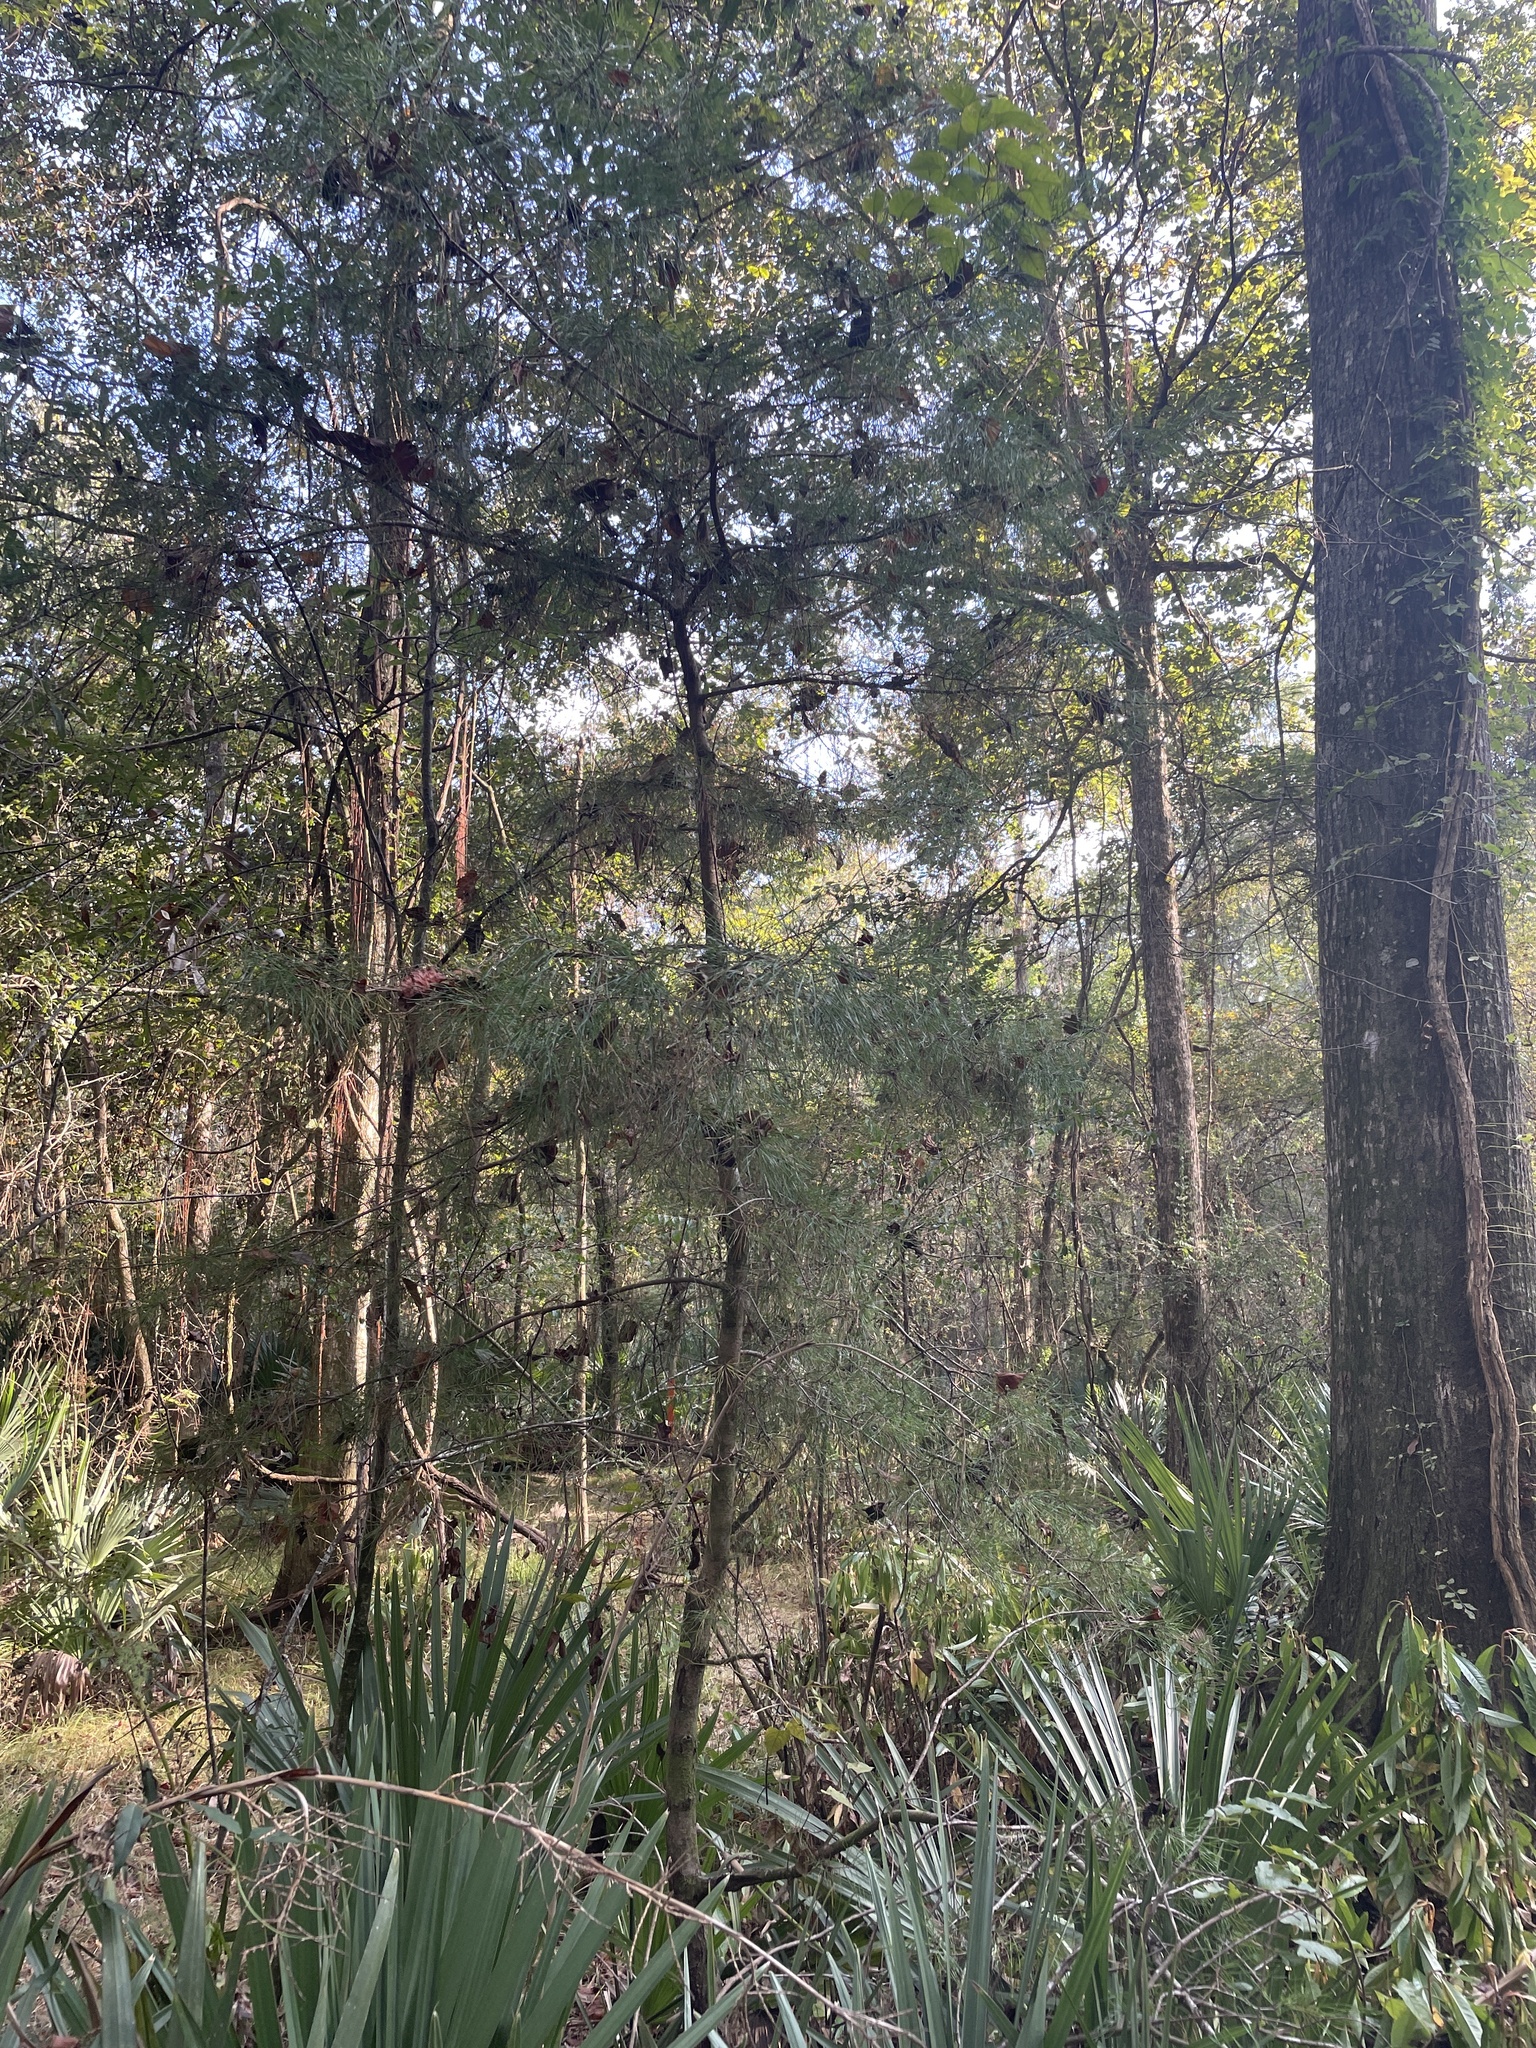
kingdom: Plantae
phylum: Tracheophyta
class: Pinopsida
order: Pinales
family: Pinaceae
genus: Pinus
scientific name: Pinus glabra
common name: Spruce pine
